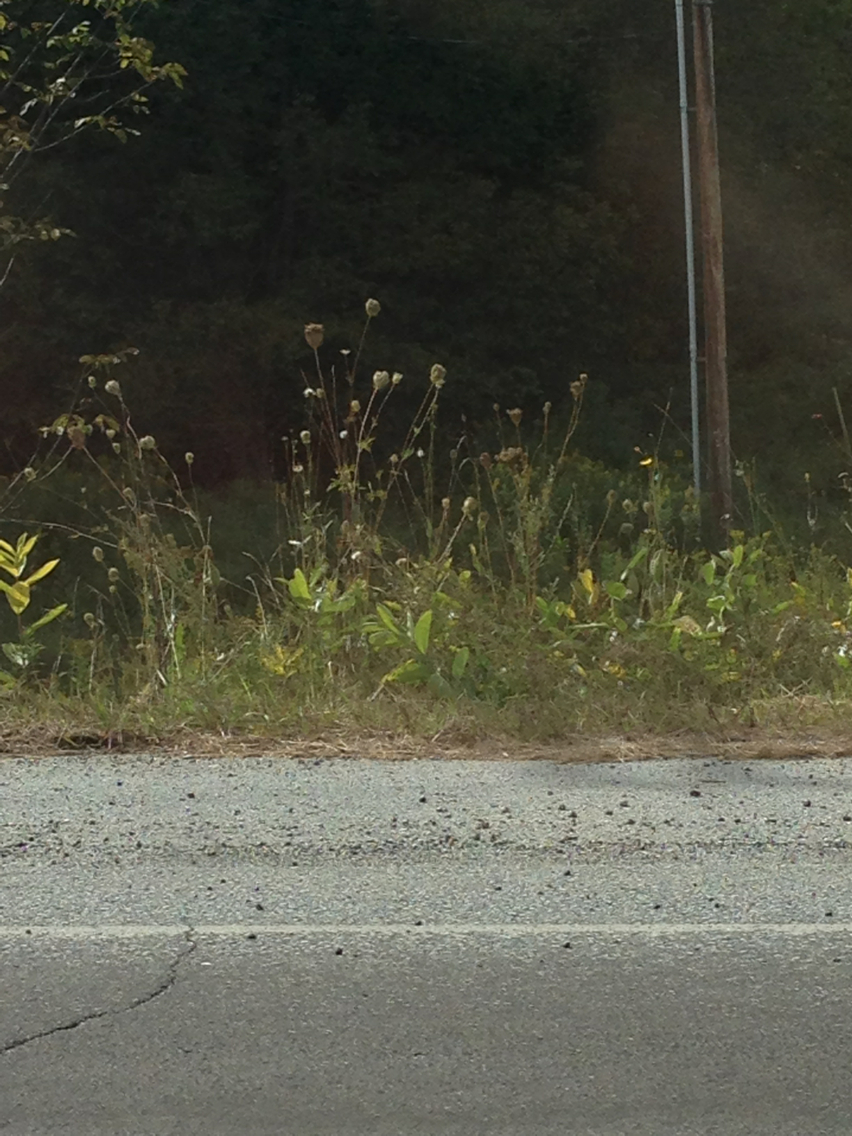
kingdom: Plantae
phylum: Tracheophyta
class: Magnoliopsida
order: Apiales
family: Apiaceae
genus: Daucus
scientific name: Daucus carota
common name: Wild carrot
